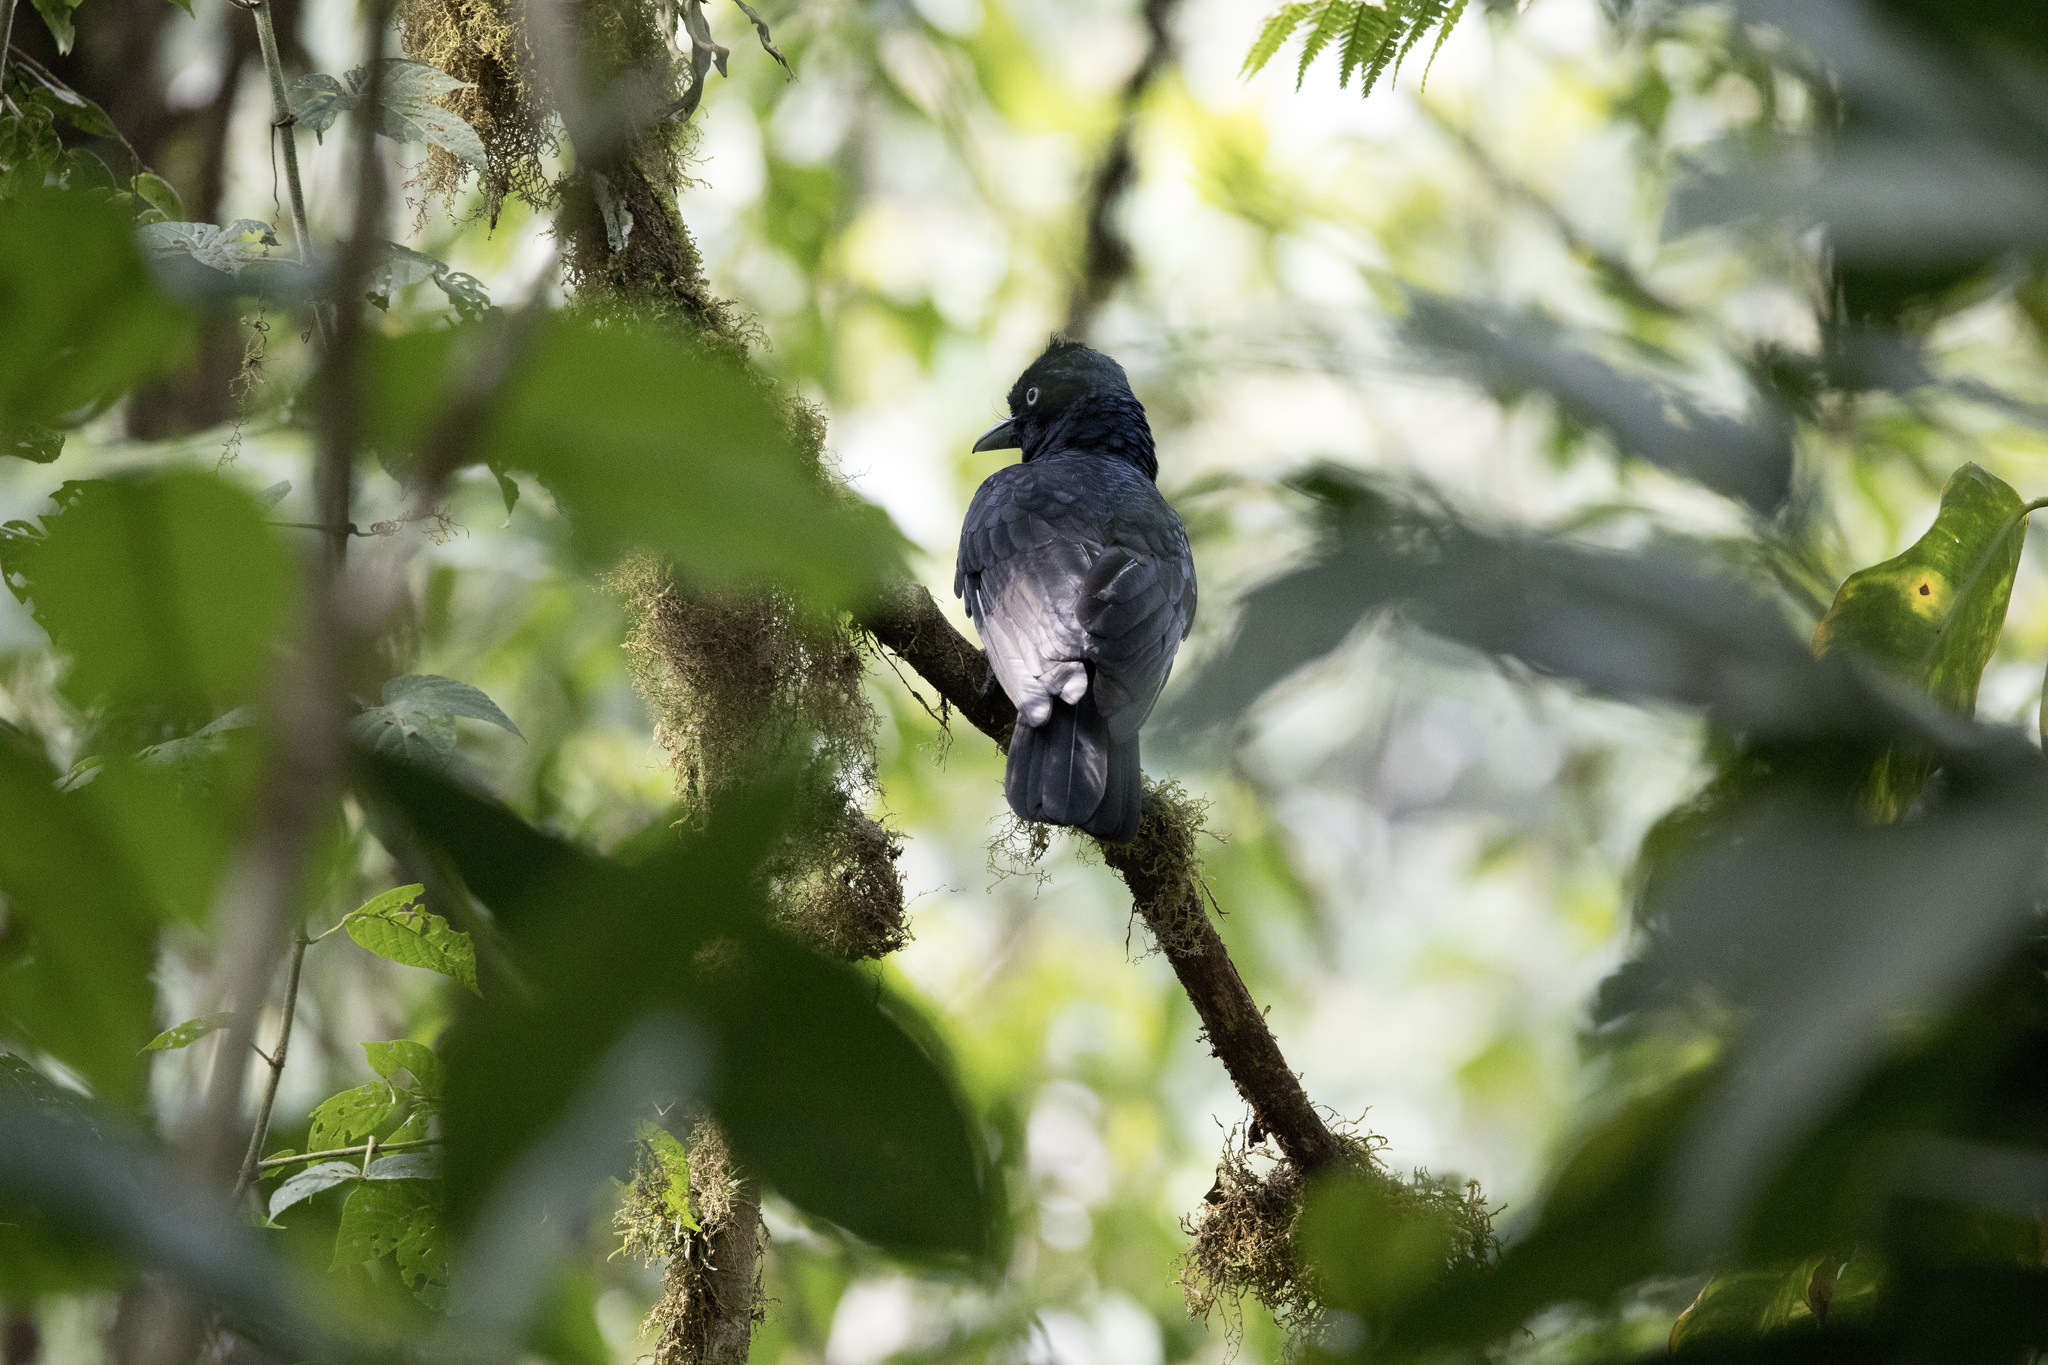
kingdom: Animalia
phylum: Chordata
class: Aves
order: Passeriformes
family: Cotingidae
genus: Cephalopterus
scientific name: Cephalopterus ornatus
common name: Amazonian umbrellabird
